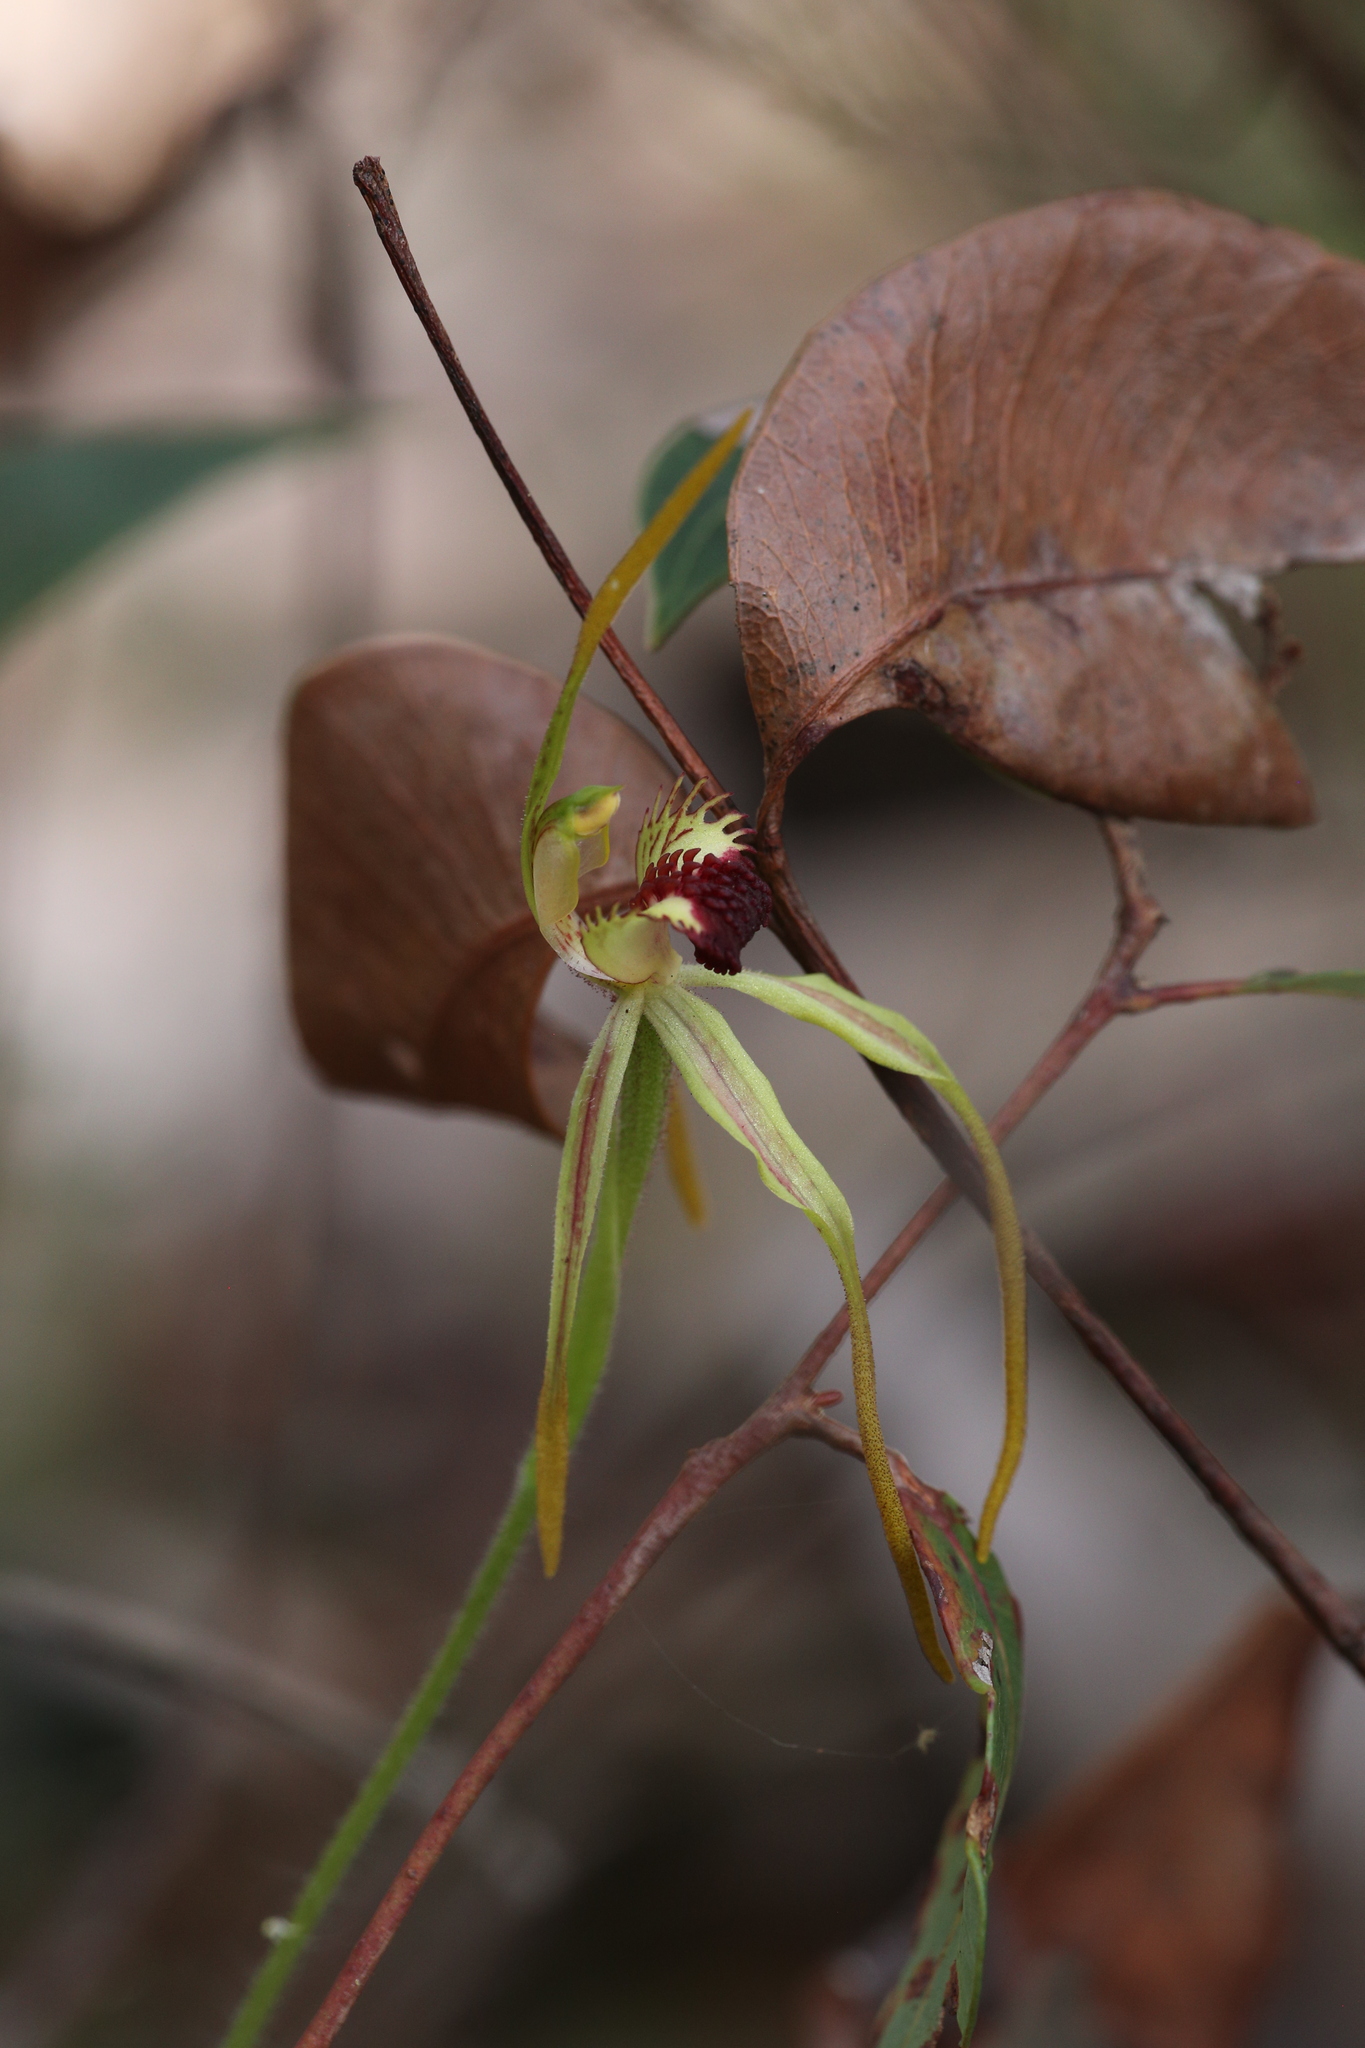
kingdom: Plantae
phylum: Tracheophyta
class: Liliopsida
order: Asparagales
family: Orchidaceae
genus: Caladenia
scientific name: Caladenia longiclavata
